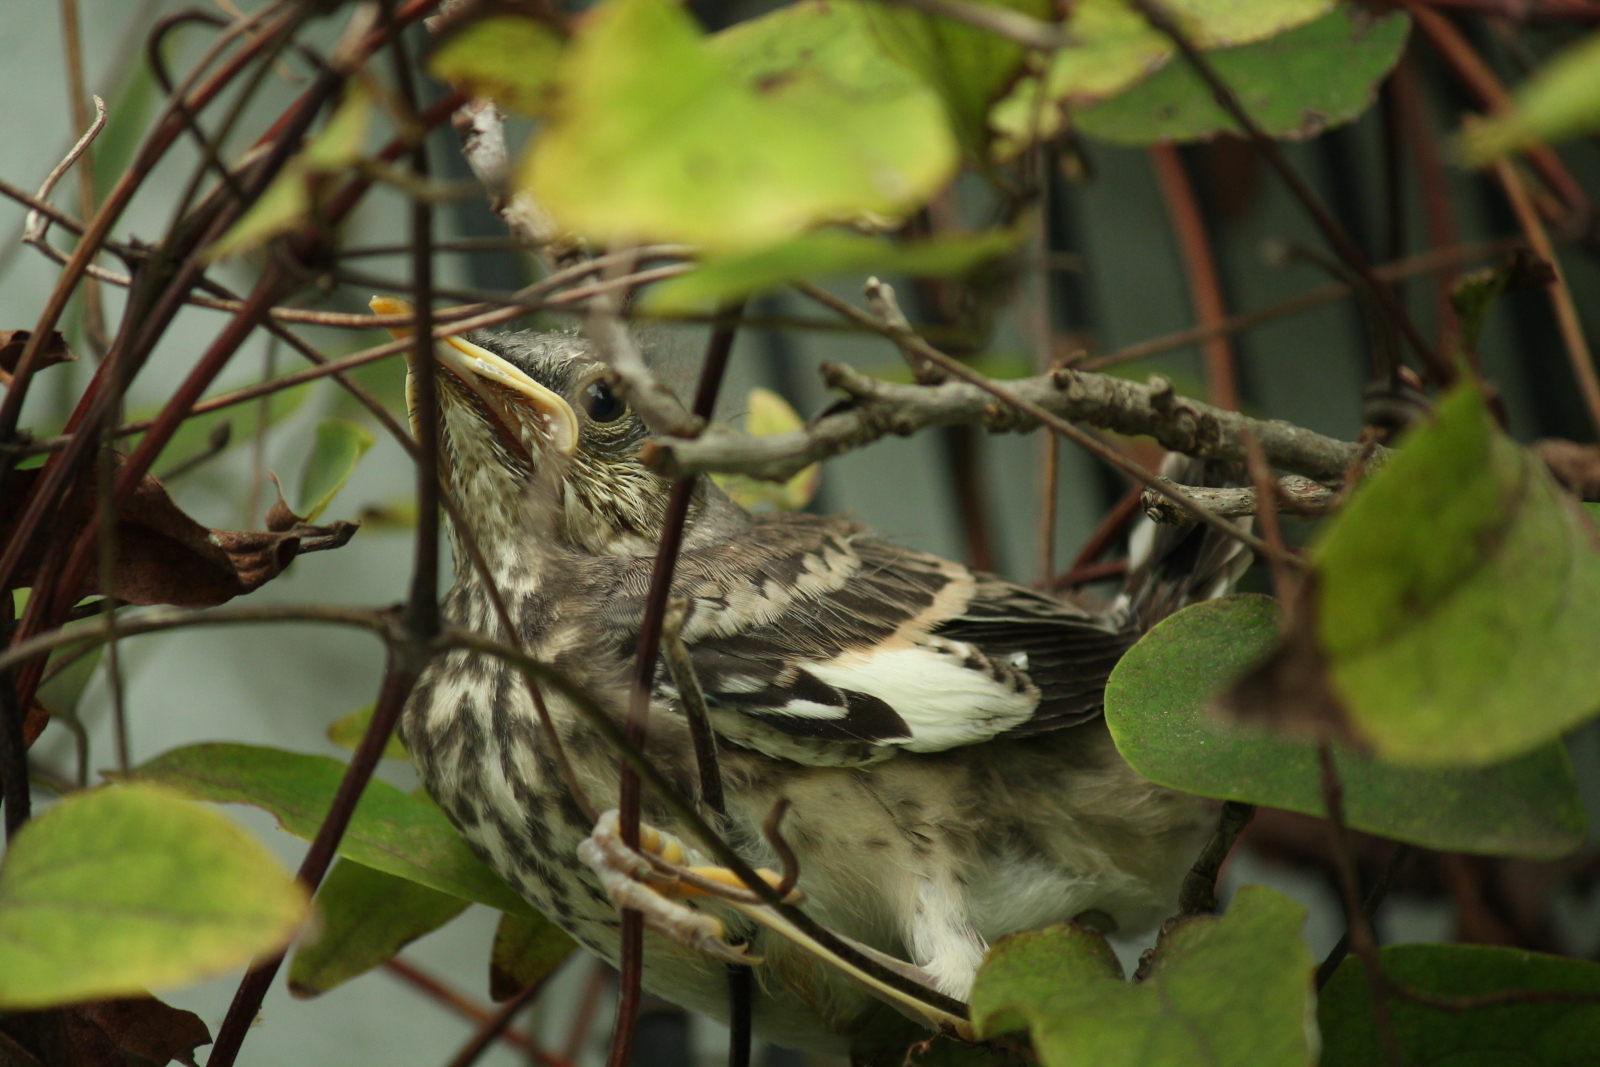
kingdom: Animalia
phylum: Chordata
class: Aves
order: Passeriformes
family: Mimidae
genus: Mimus
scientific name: Mimus polyglottos
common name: Northern mockingbird
